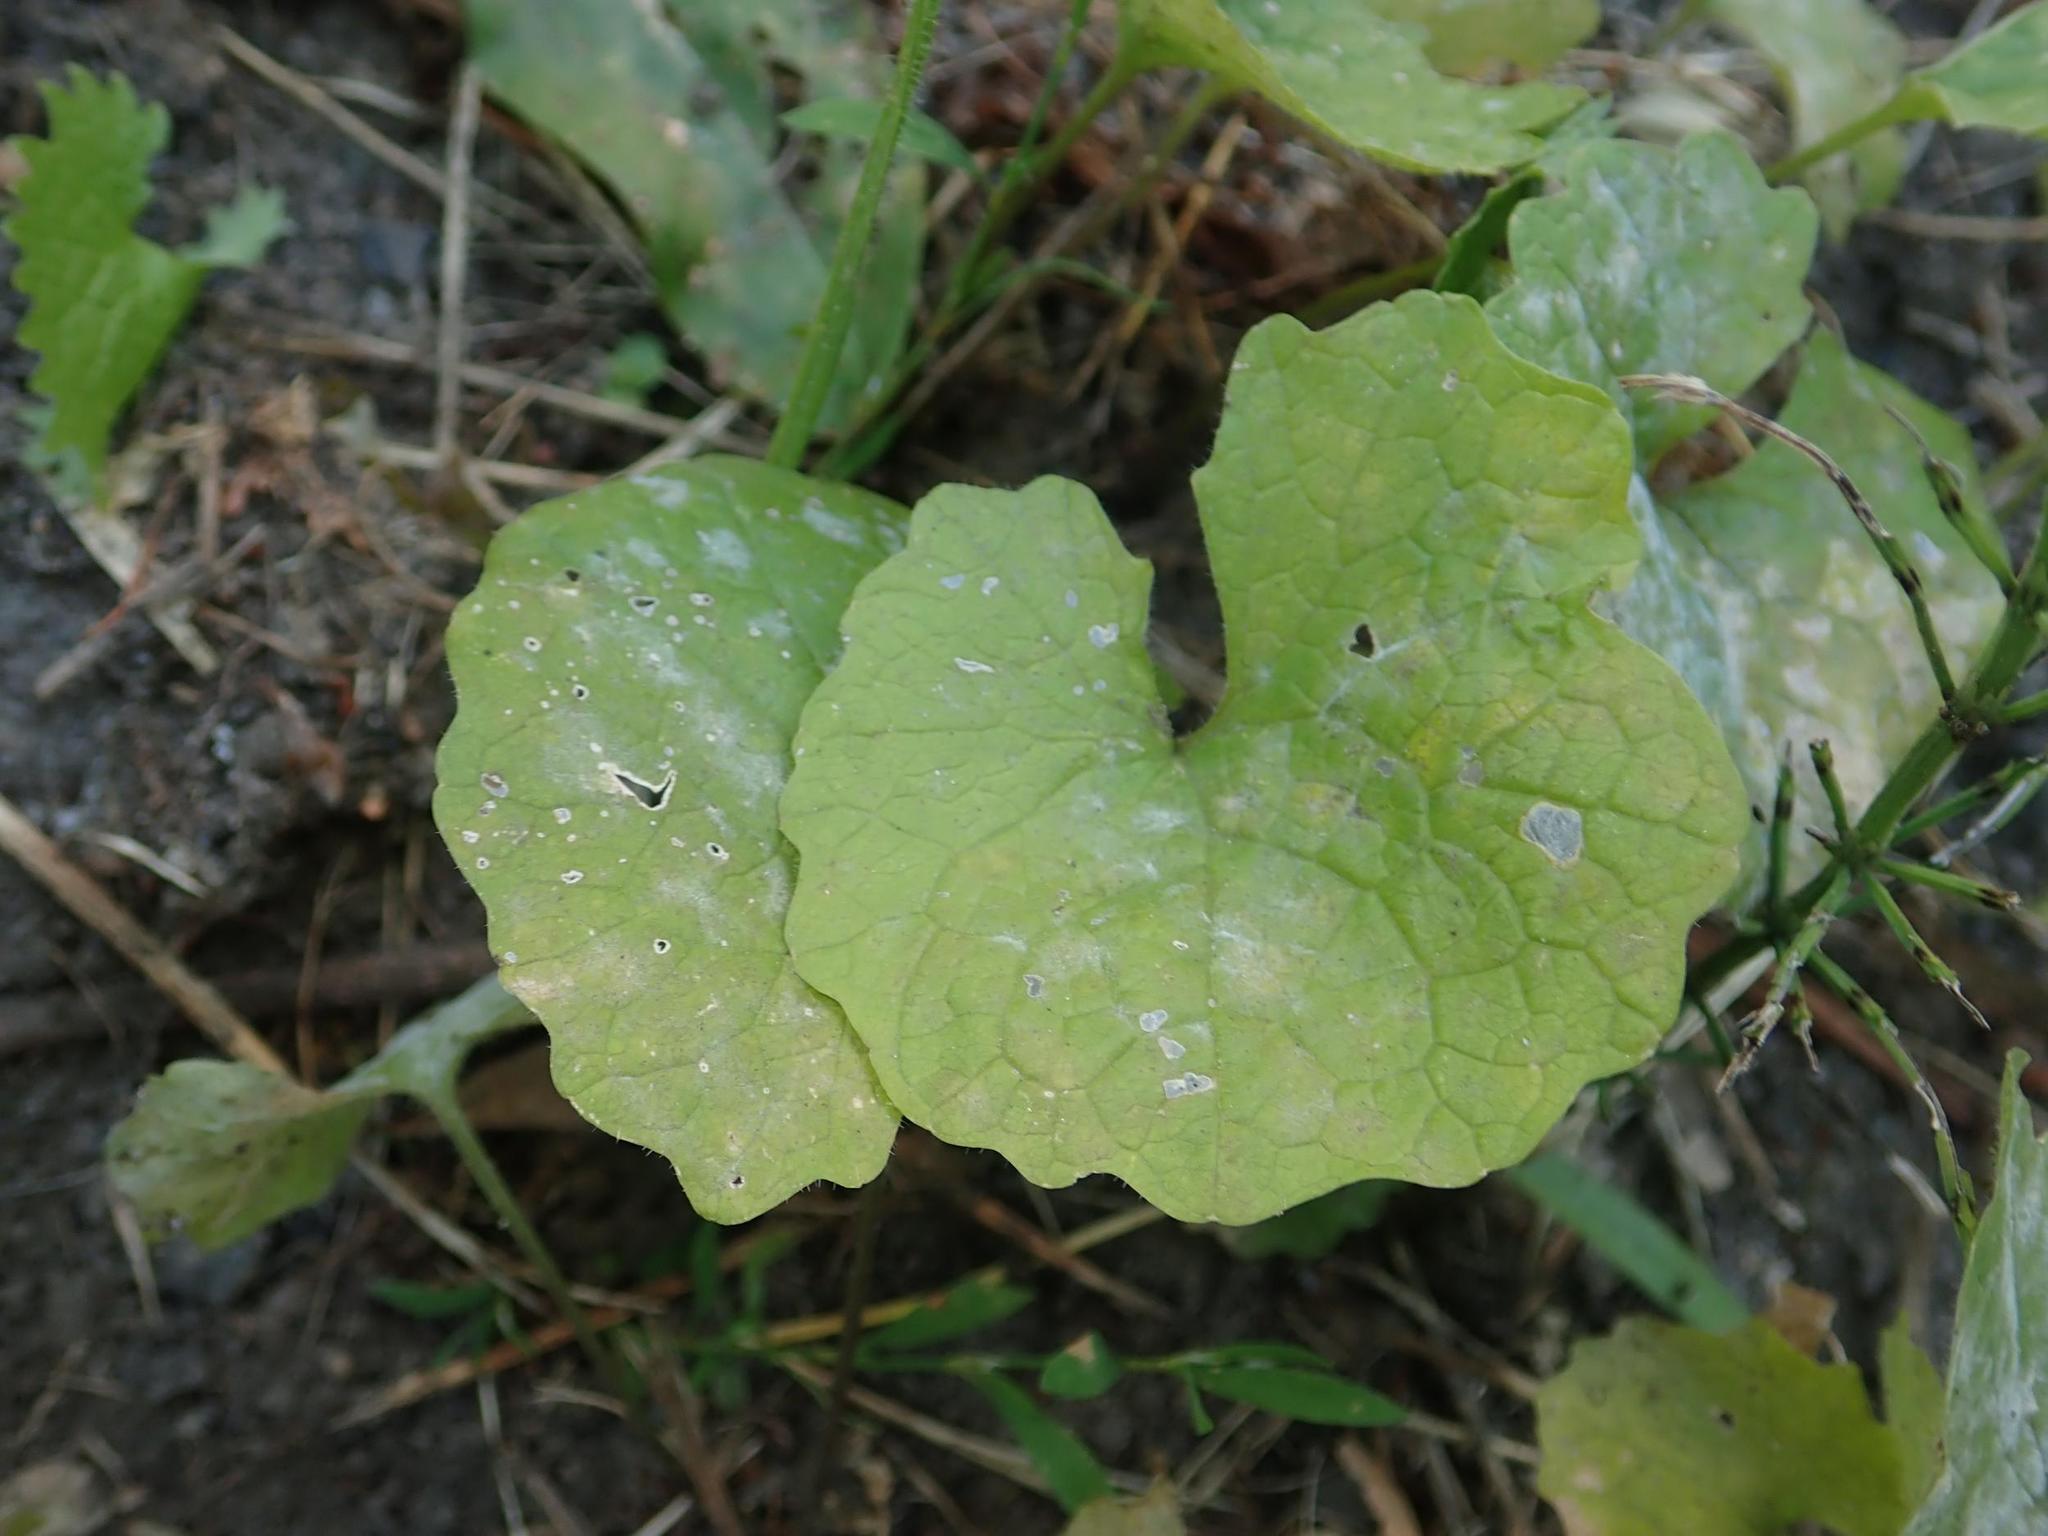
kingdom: Plantae
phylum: Tracheophyta
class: Magnoliopsida
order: Brassicales
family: Brassicaceae
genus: Alliaria
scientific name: Alliaria petiolata
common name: Garlic mustard
